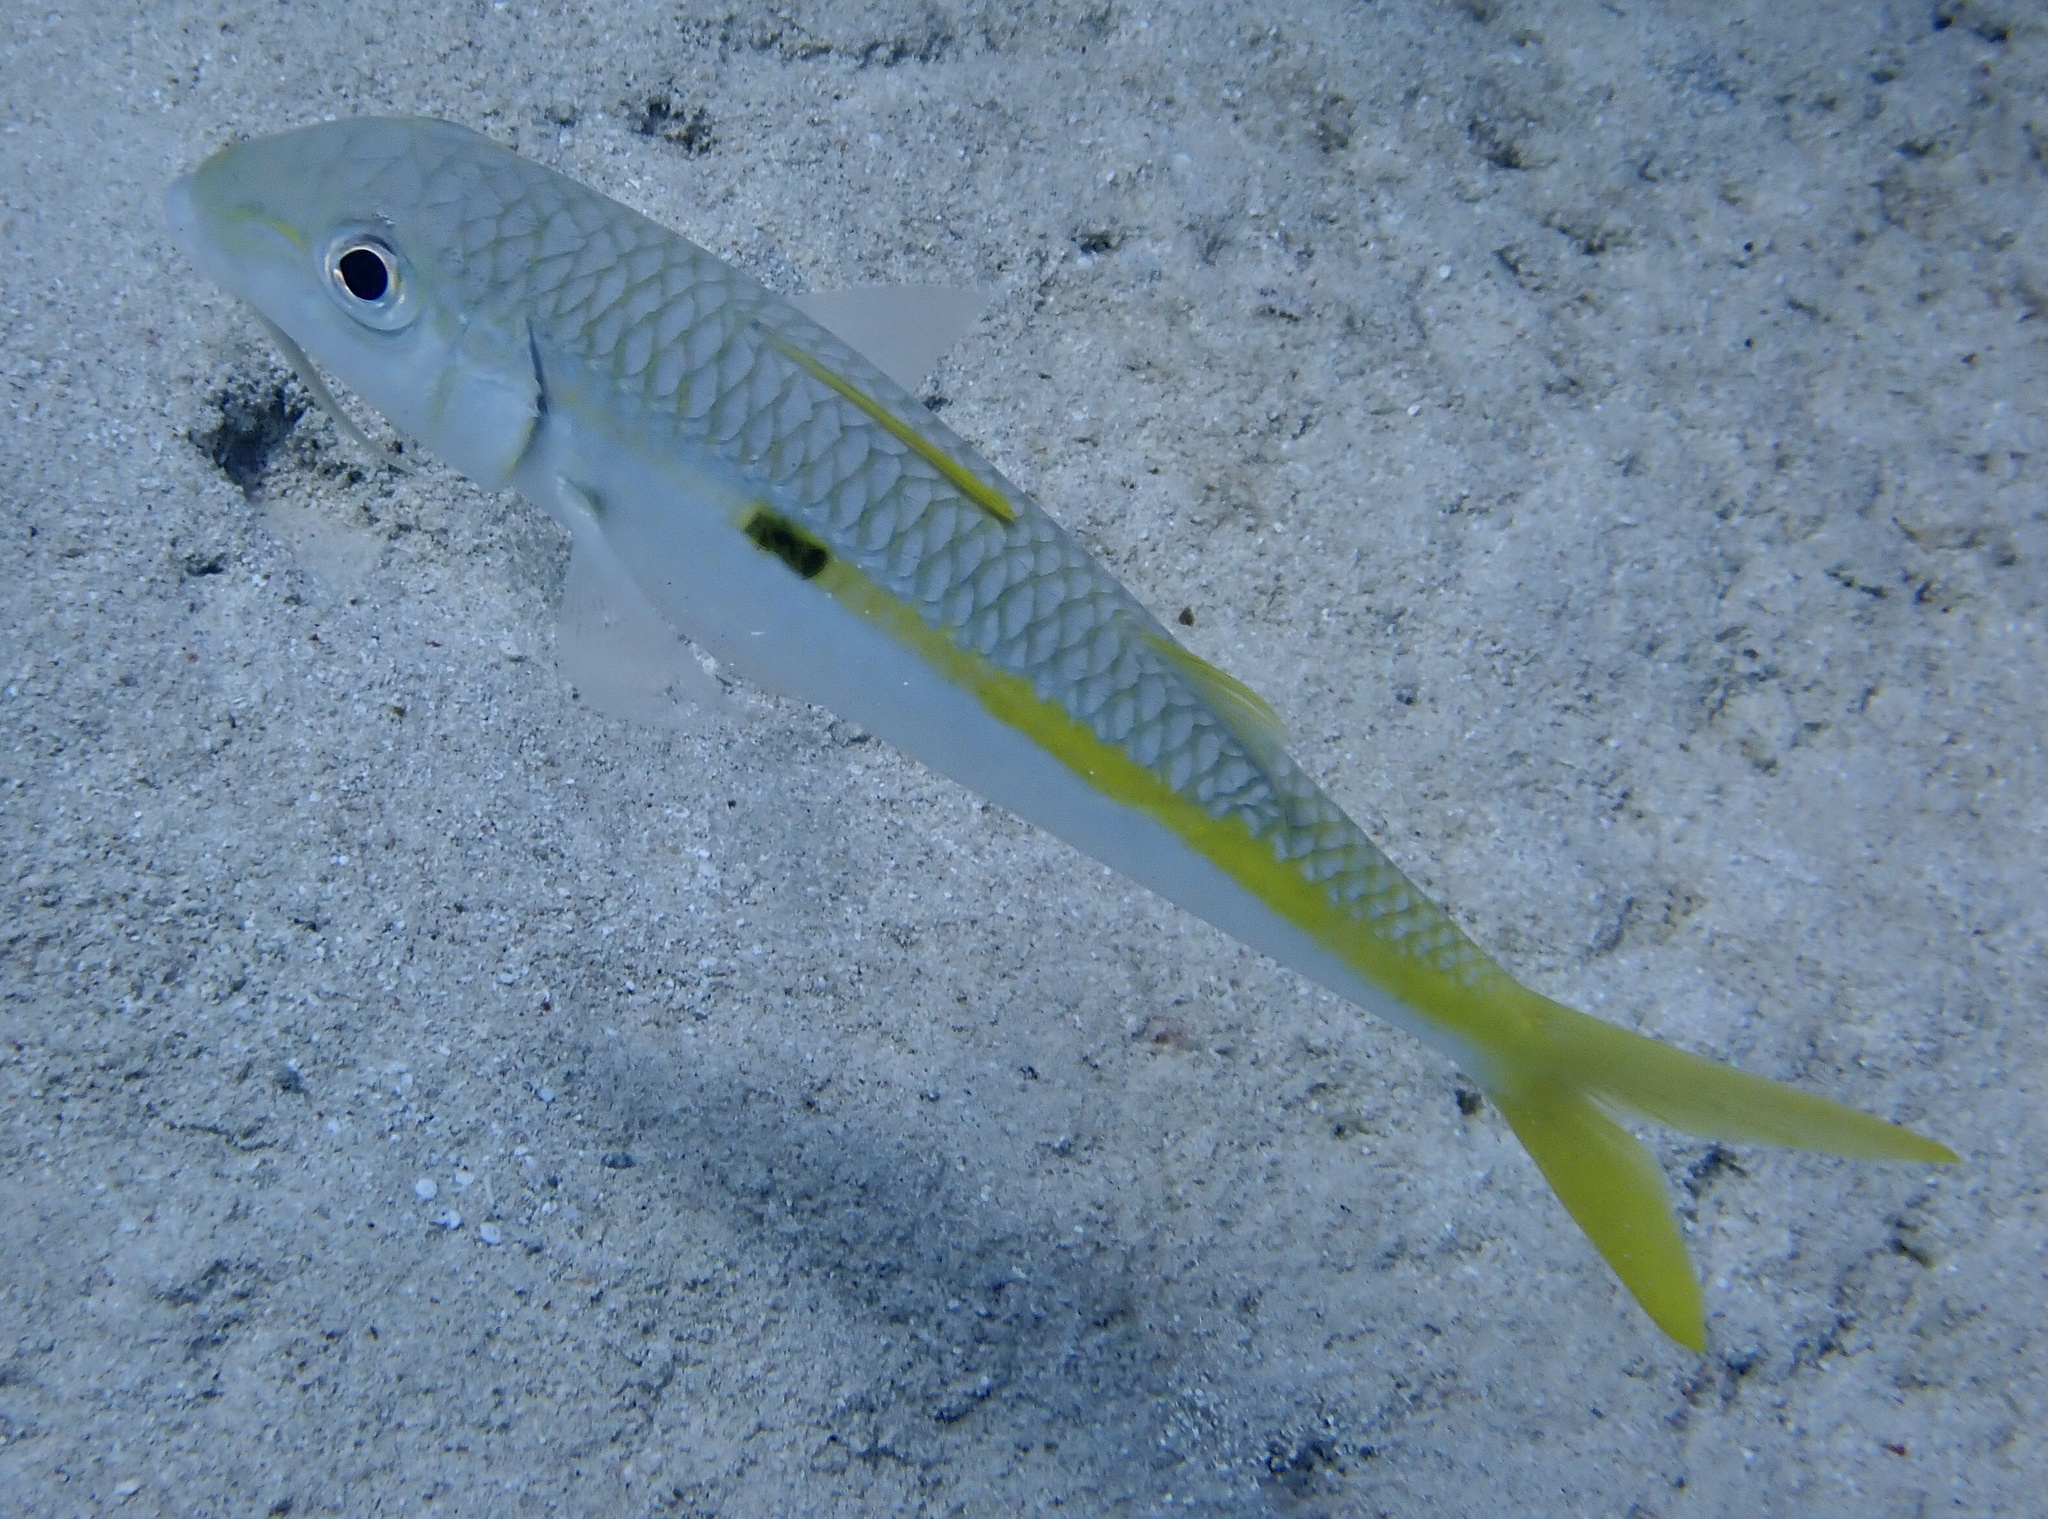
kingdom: Animalia
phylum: Chordata
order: Perciformes
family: Mullidae
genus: Mulloidichthys
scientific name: Mulloidichthys flavolineatus
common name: Yellowstripe goatfish
